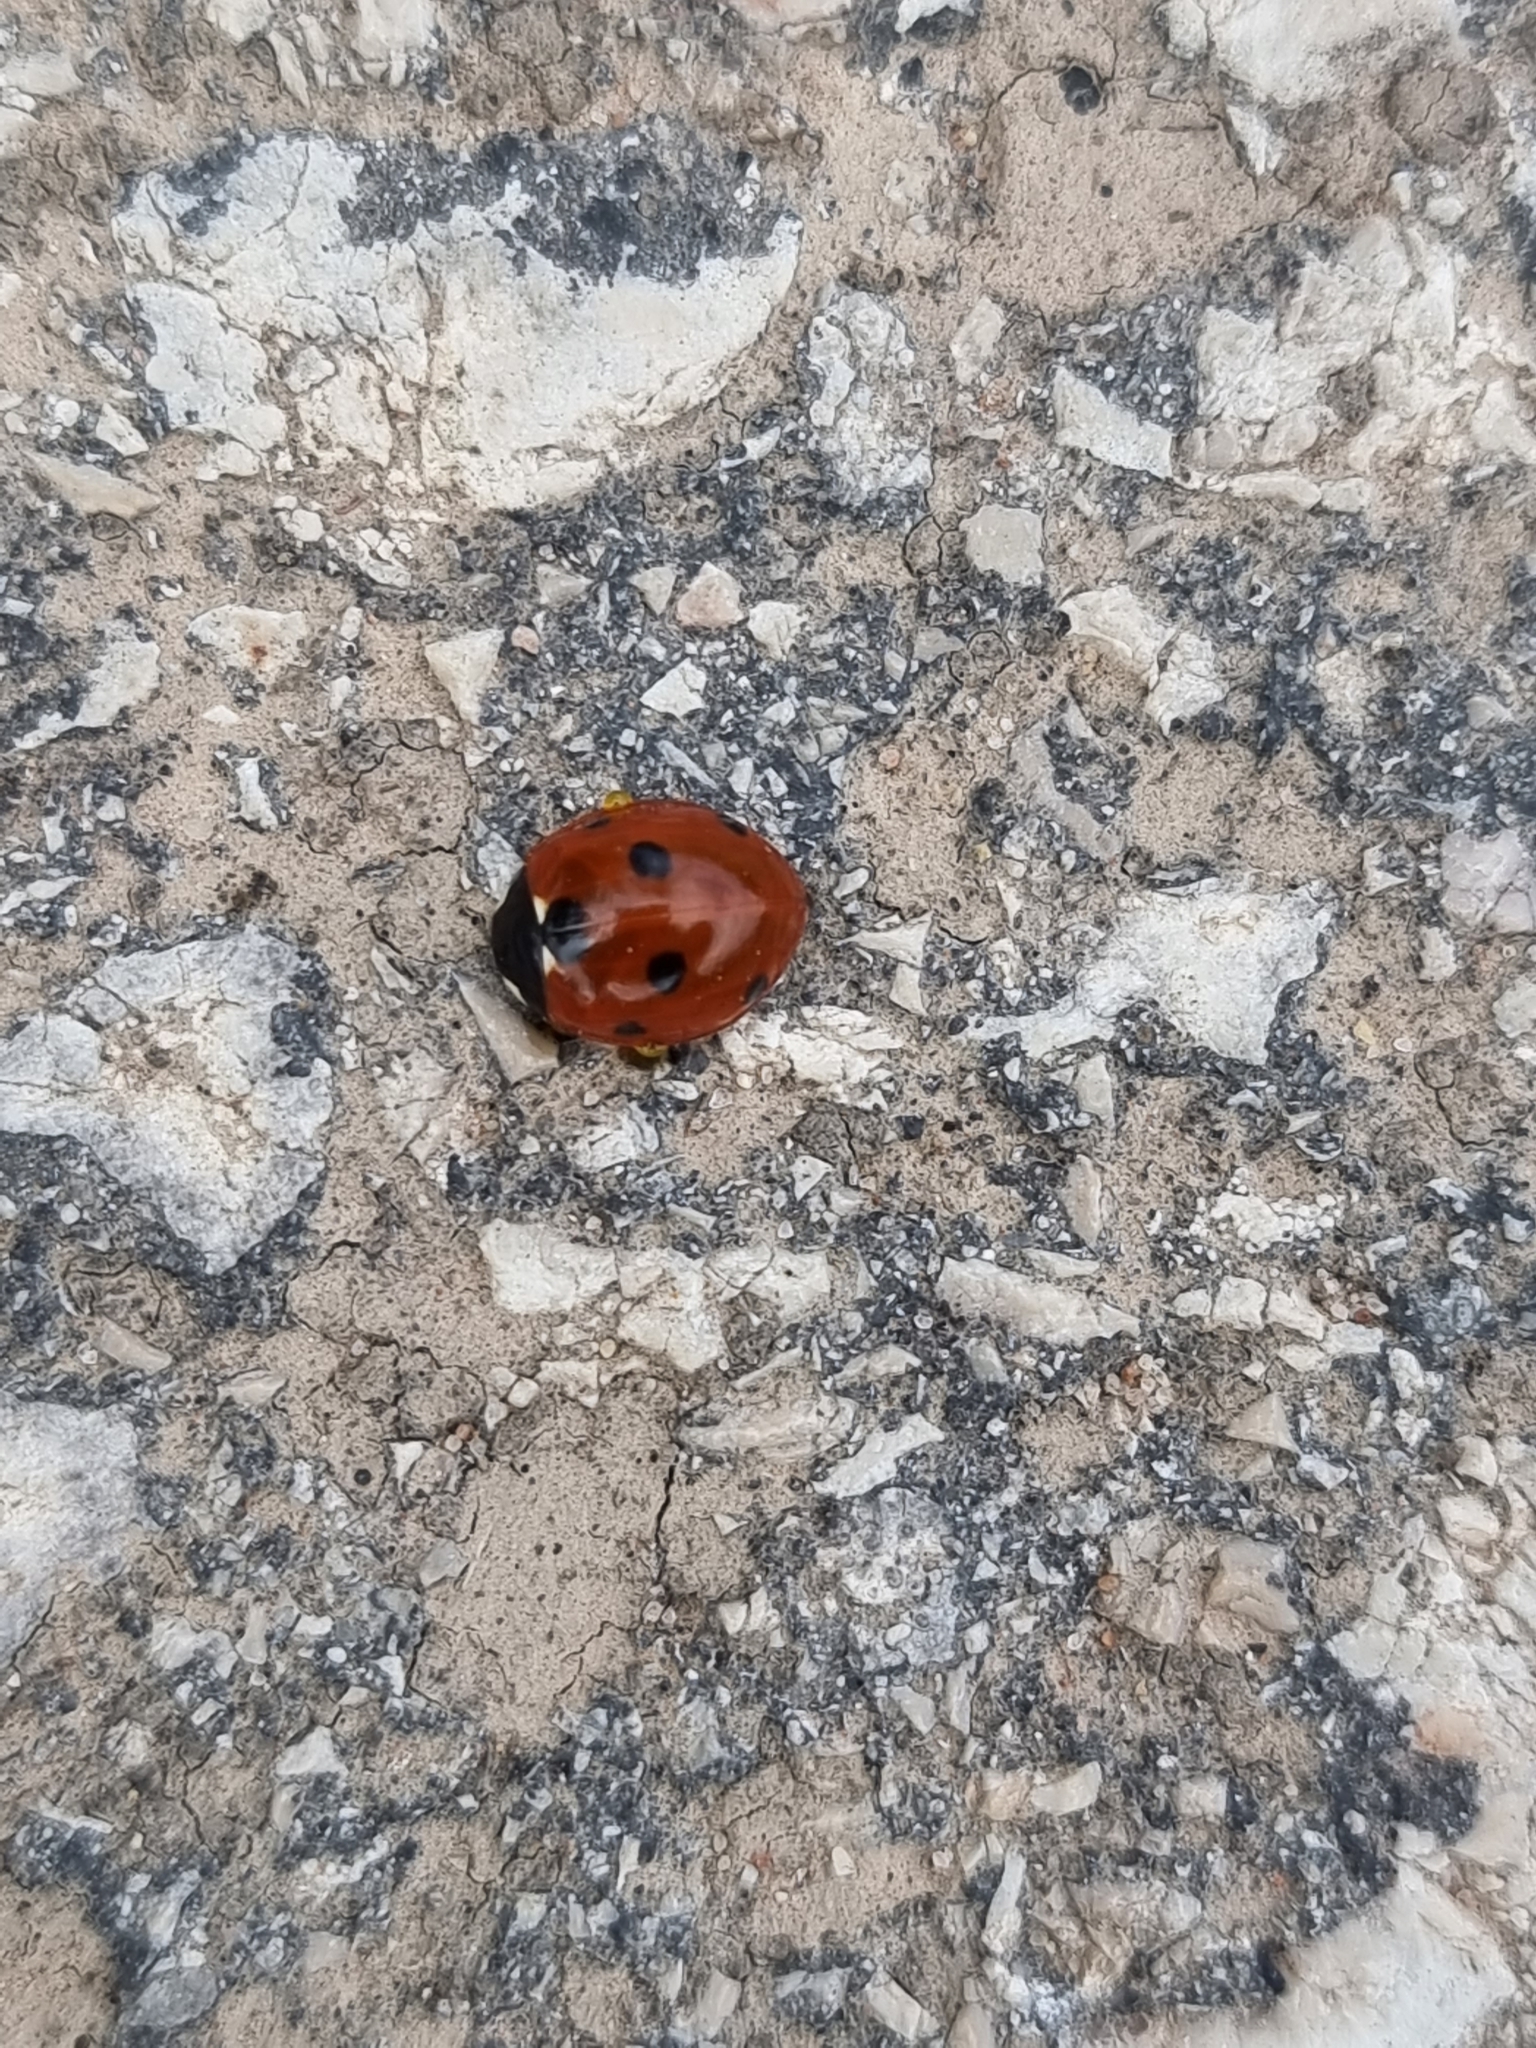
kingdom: Animalia
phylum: Arthropoda
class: Insecta
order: Coleoptera
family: Coccinellidae
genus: Coccinella
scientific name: Coccinella septempunctata
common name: Sevenspotted lady beetle
